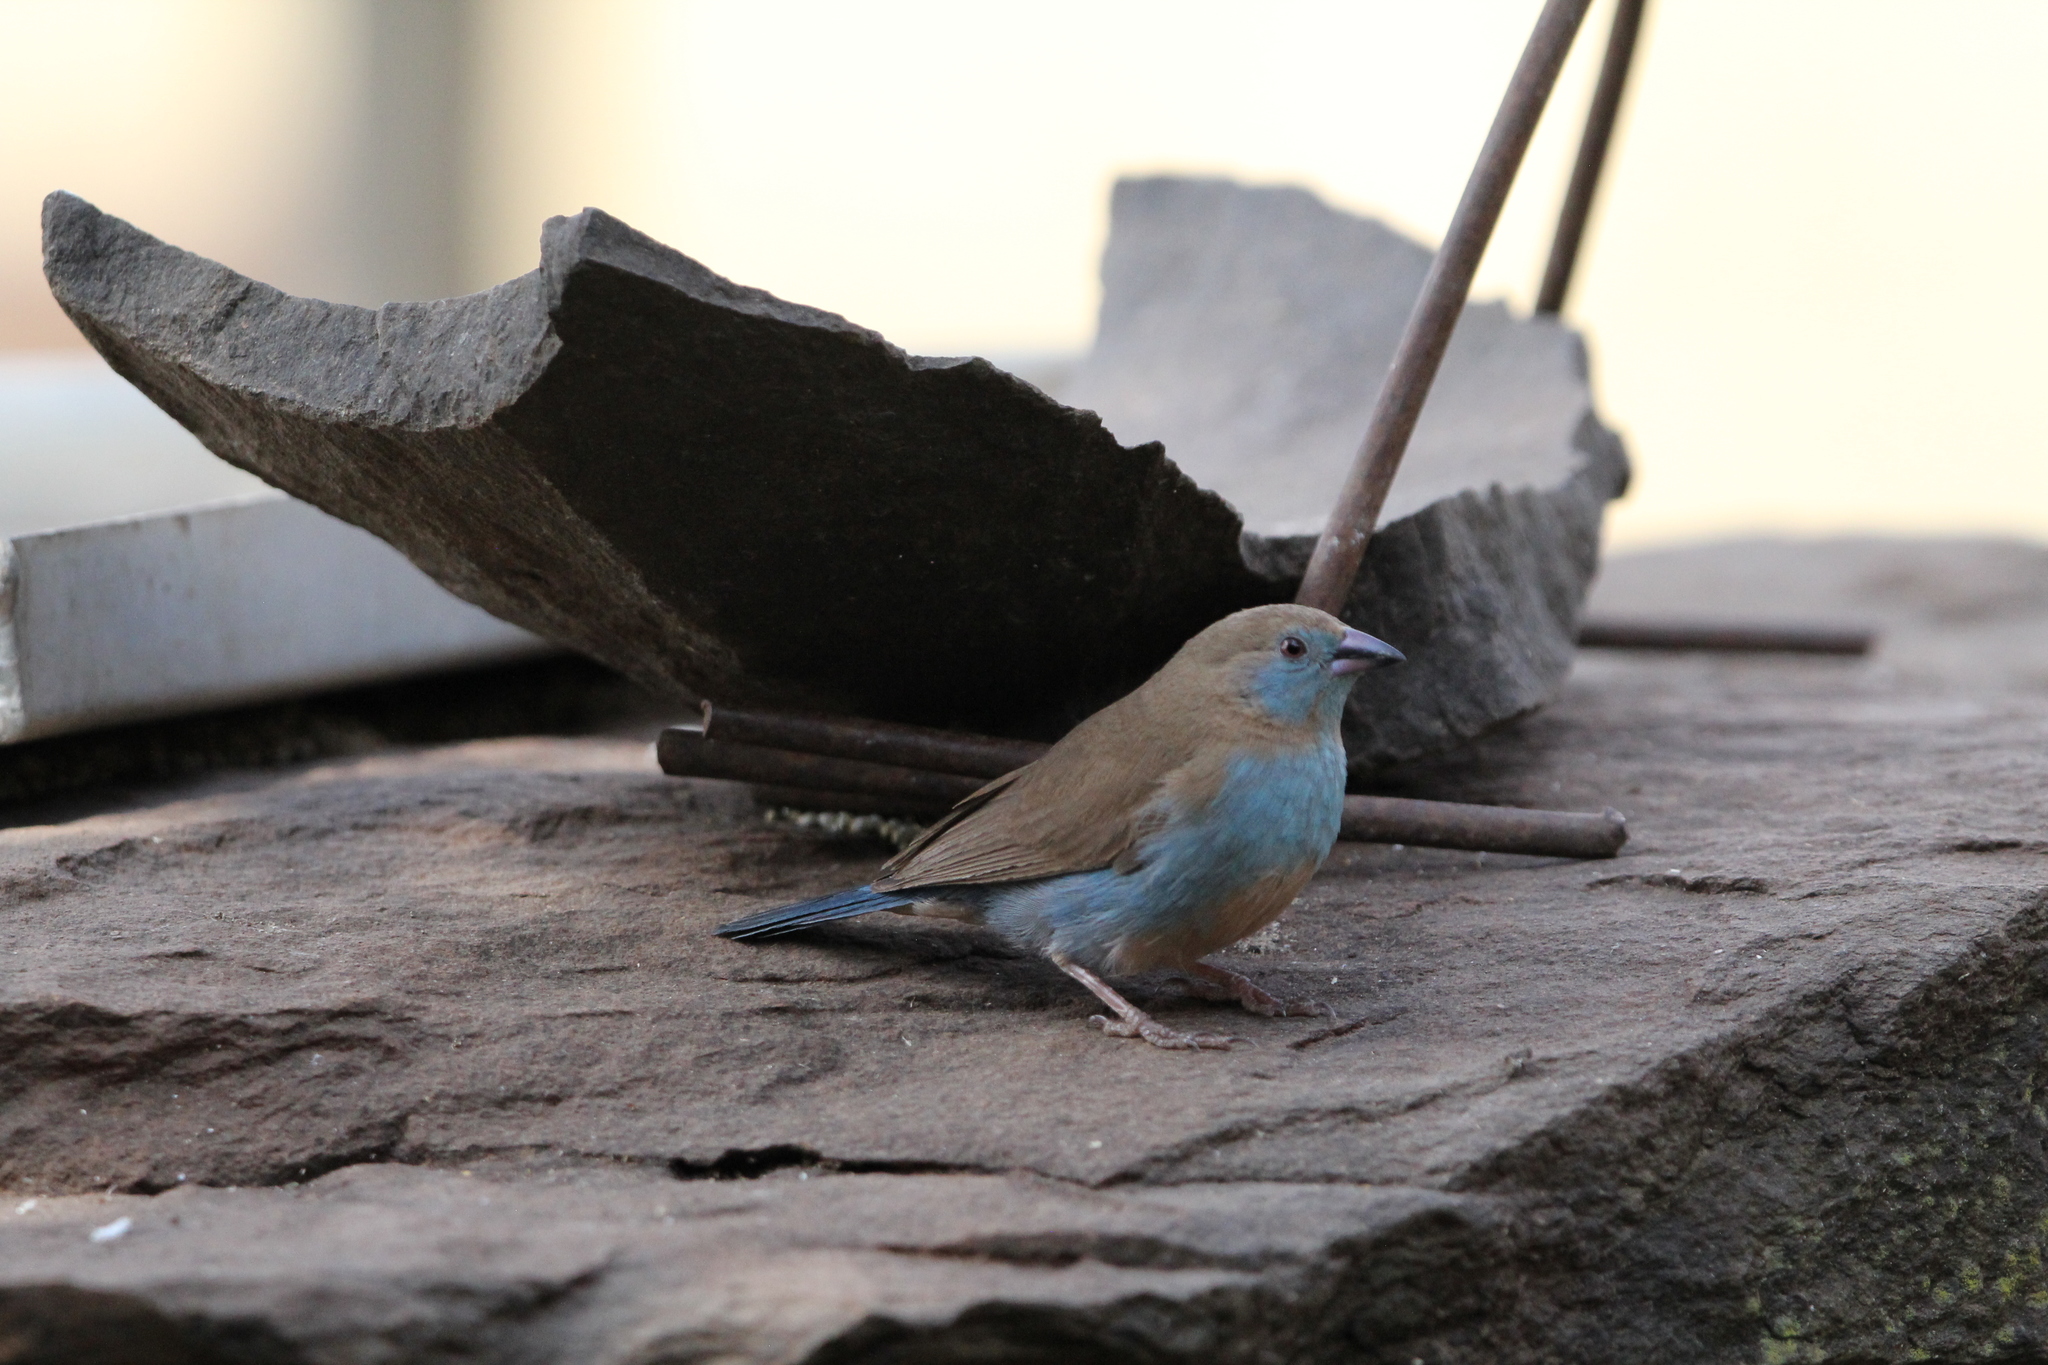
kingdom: Animalia
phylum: Chordata
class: Aves
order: Passeriformes
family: Estrildidae
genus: Uraeginthus
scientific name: Uraeginthus bengalus
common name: Red-cheeked cordon-bleu
